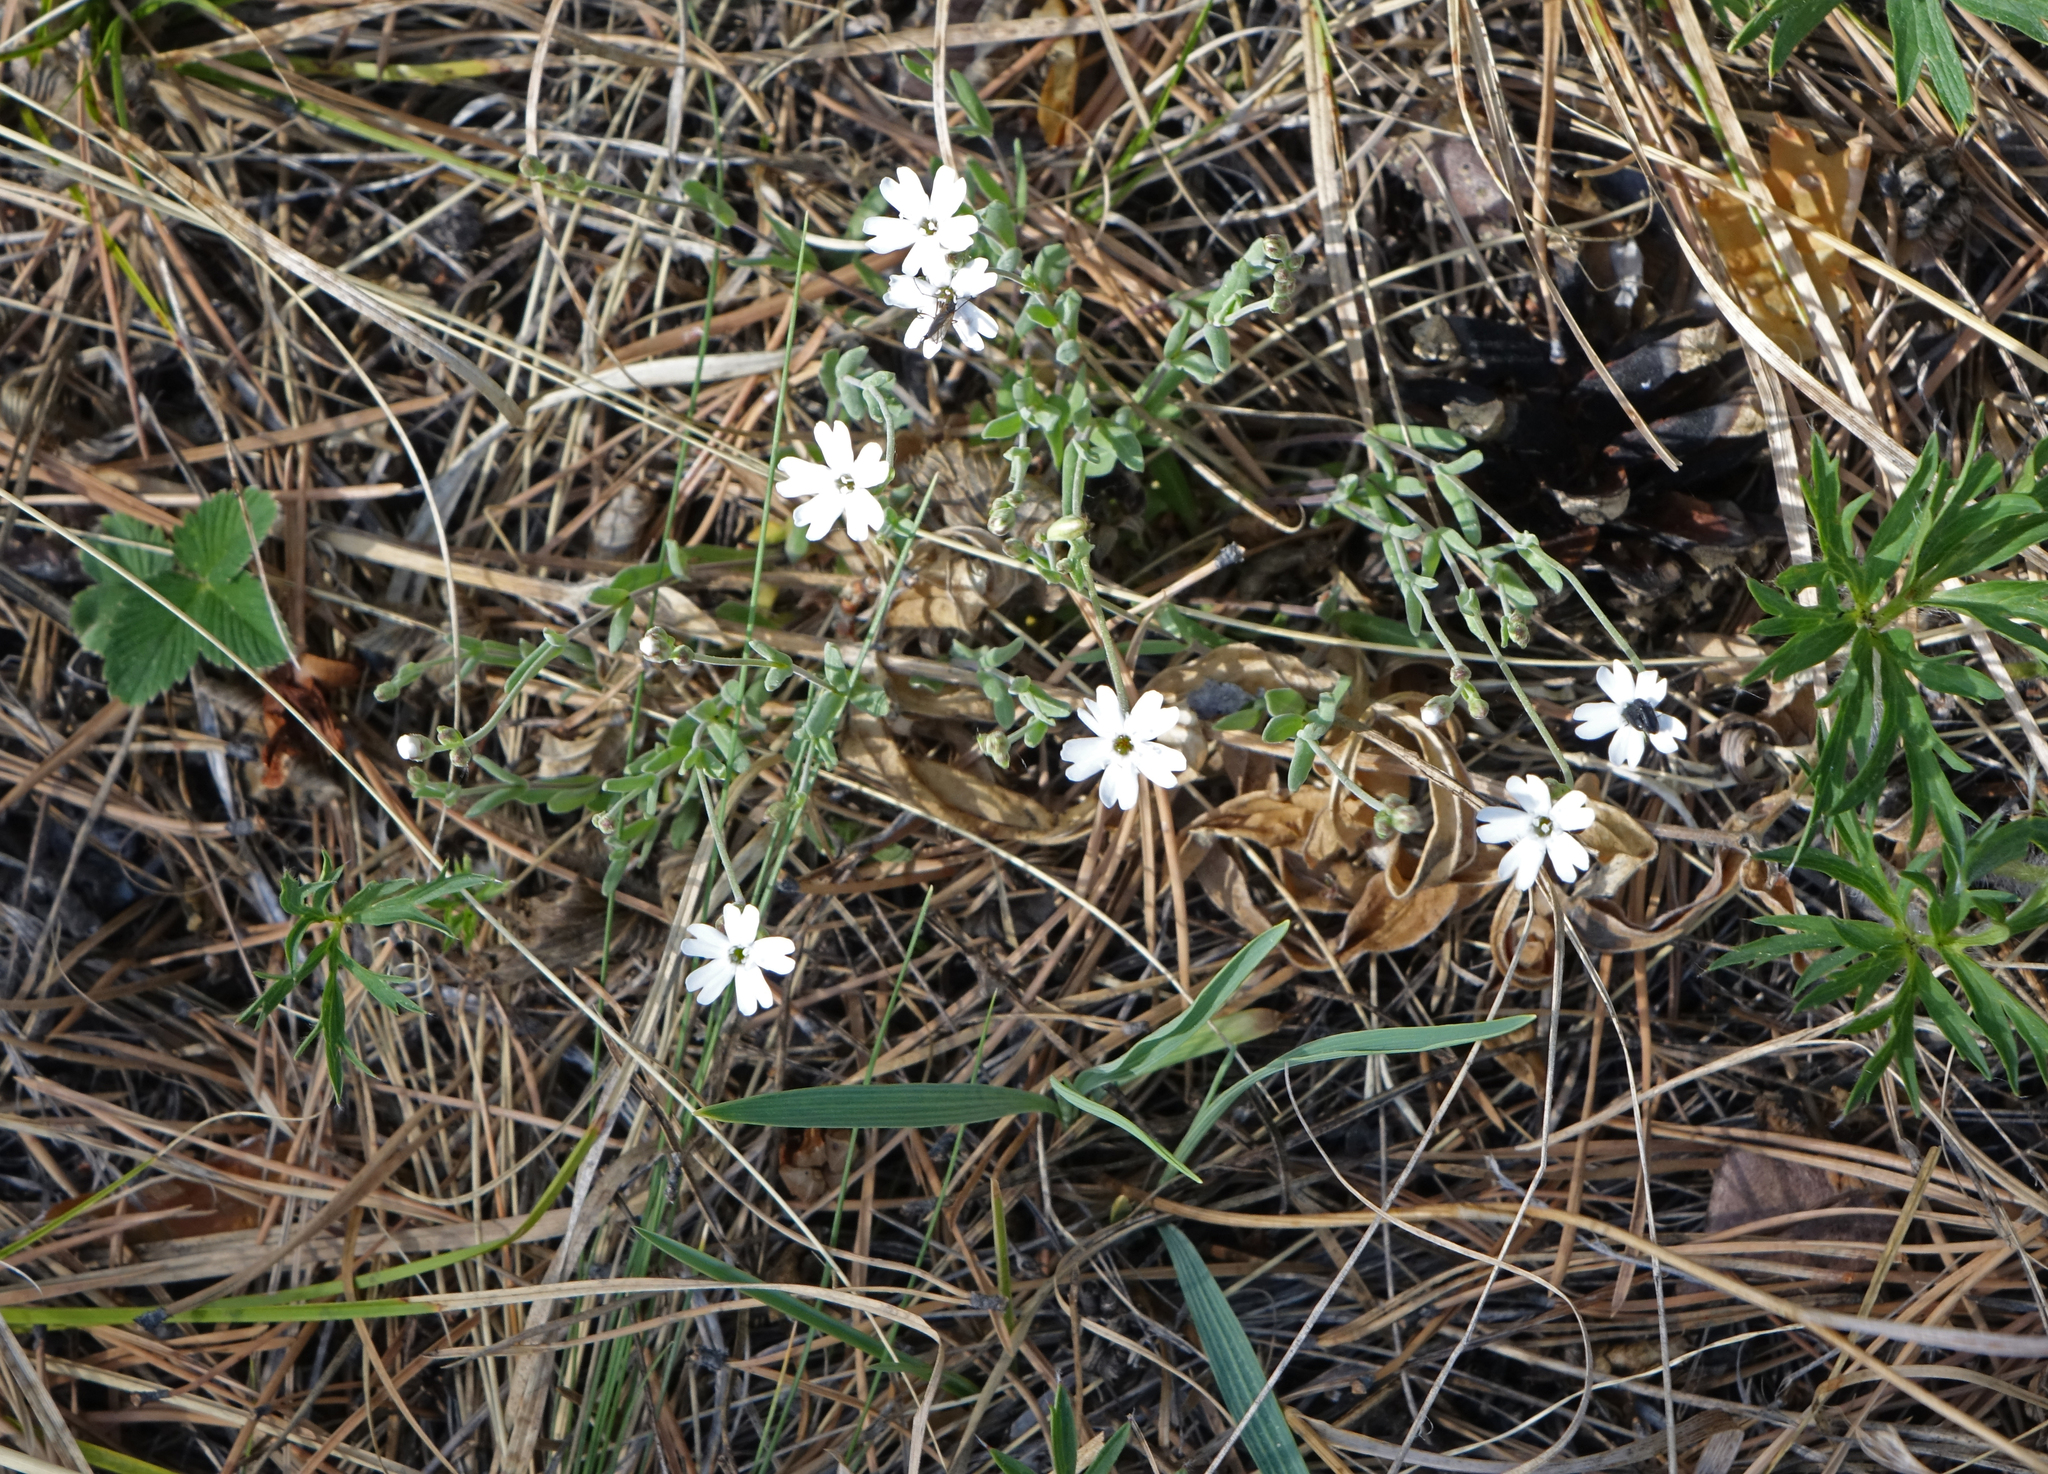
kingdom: Plantae
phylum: Tracheophyta
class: Magnoliopsida
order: Caryophyllales
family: Caryophyllaceae
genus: Silene
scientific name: Silene orientalimongolica
